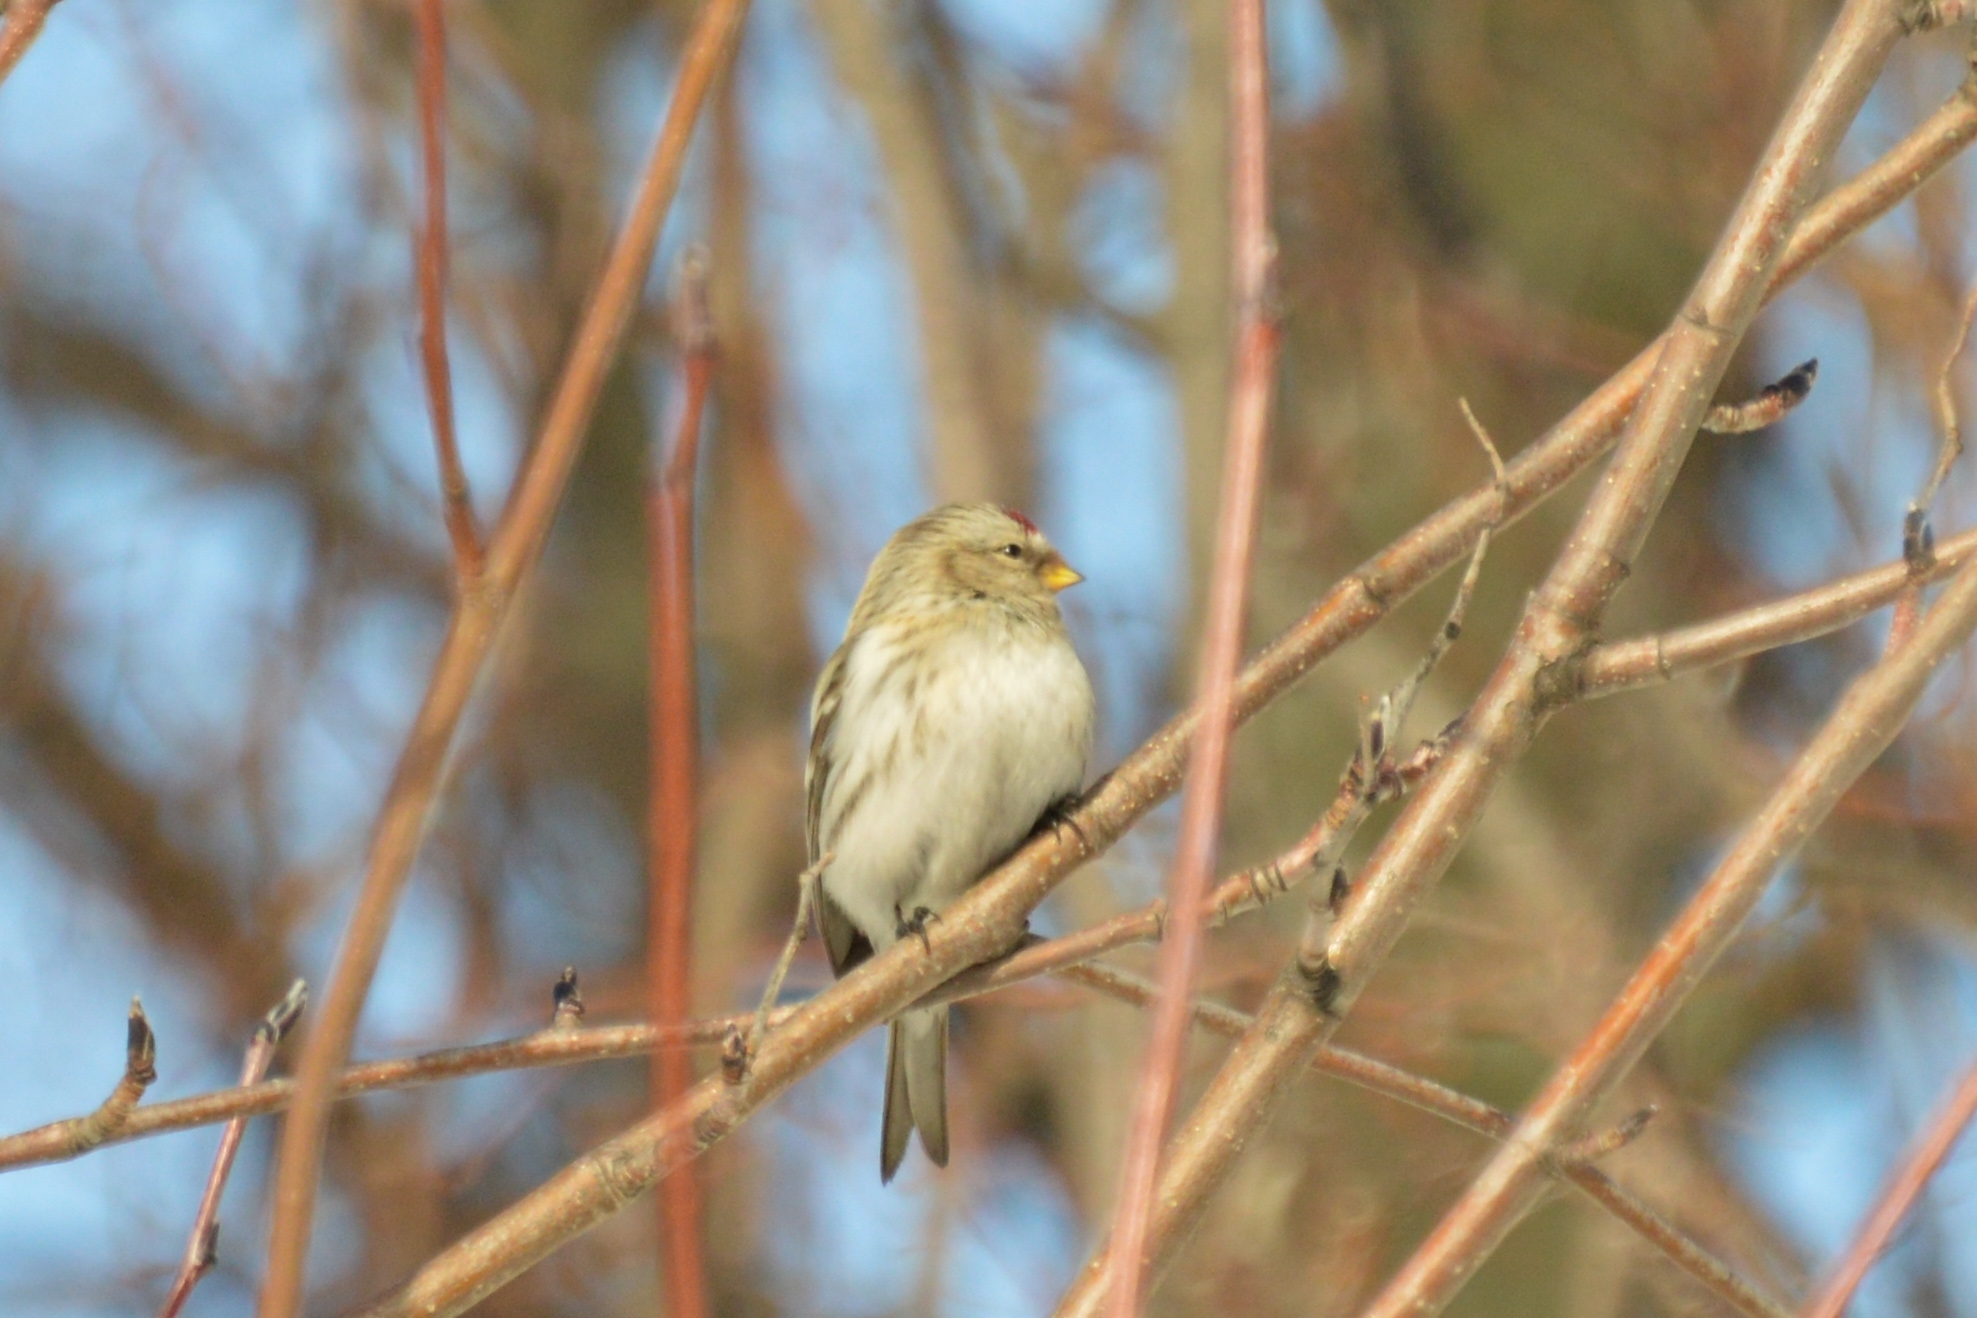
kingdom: Animalia
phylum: Chordata
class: Aves
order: Passeriformes
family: Fringillidae
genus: Acanthis
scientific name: Acanthis hornemanni
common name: Arctic redpoll
